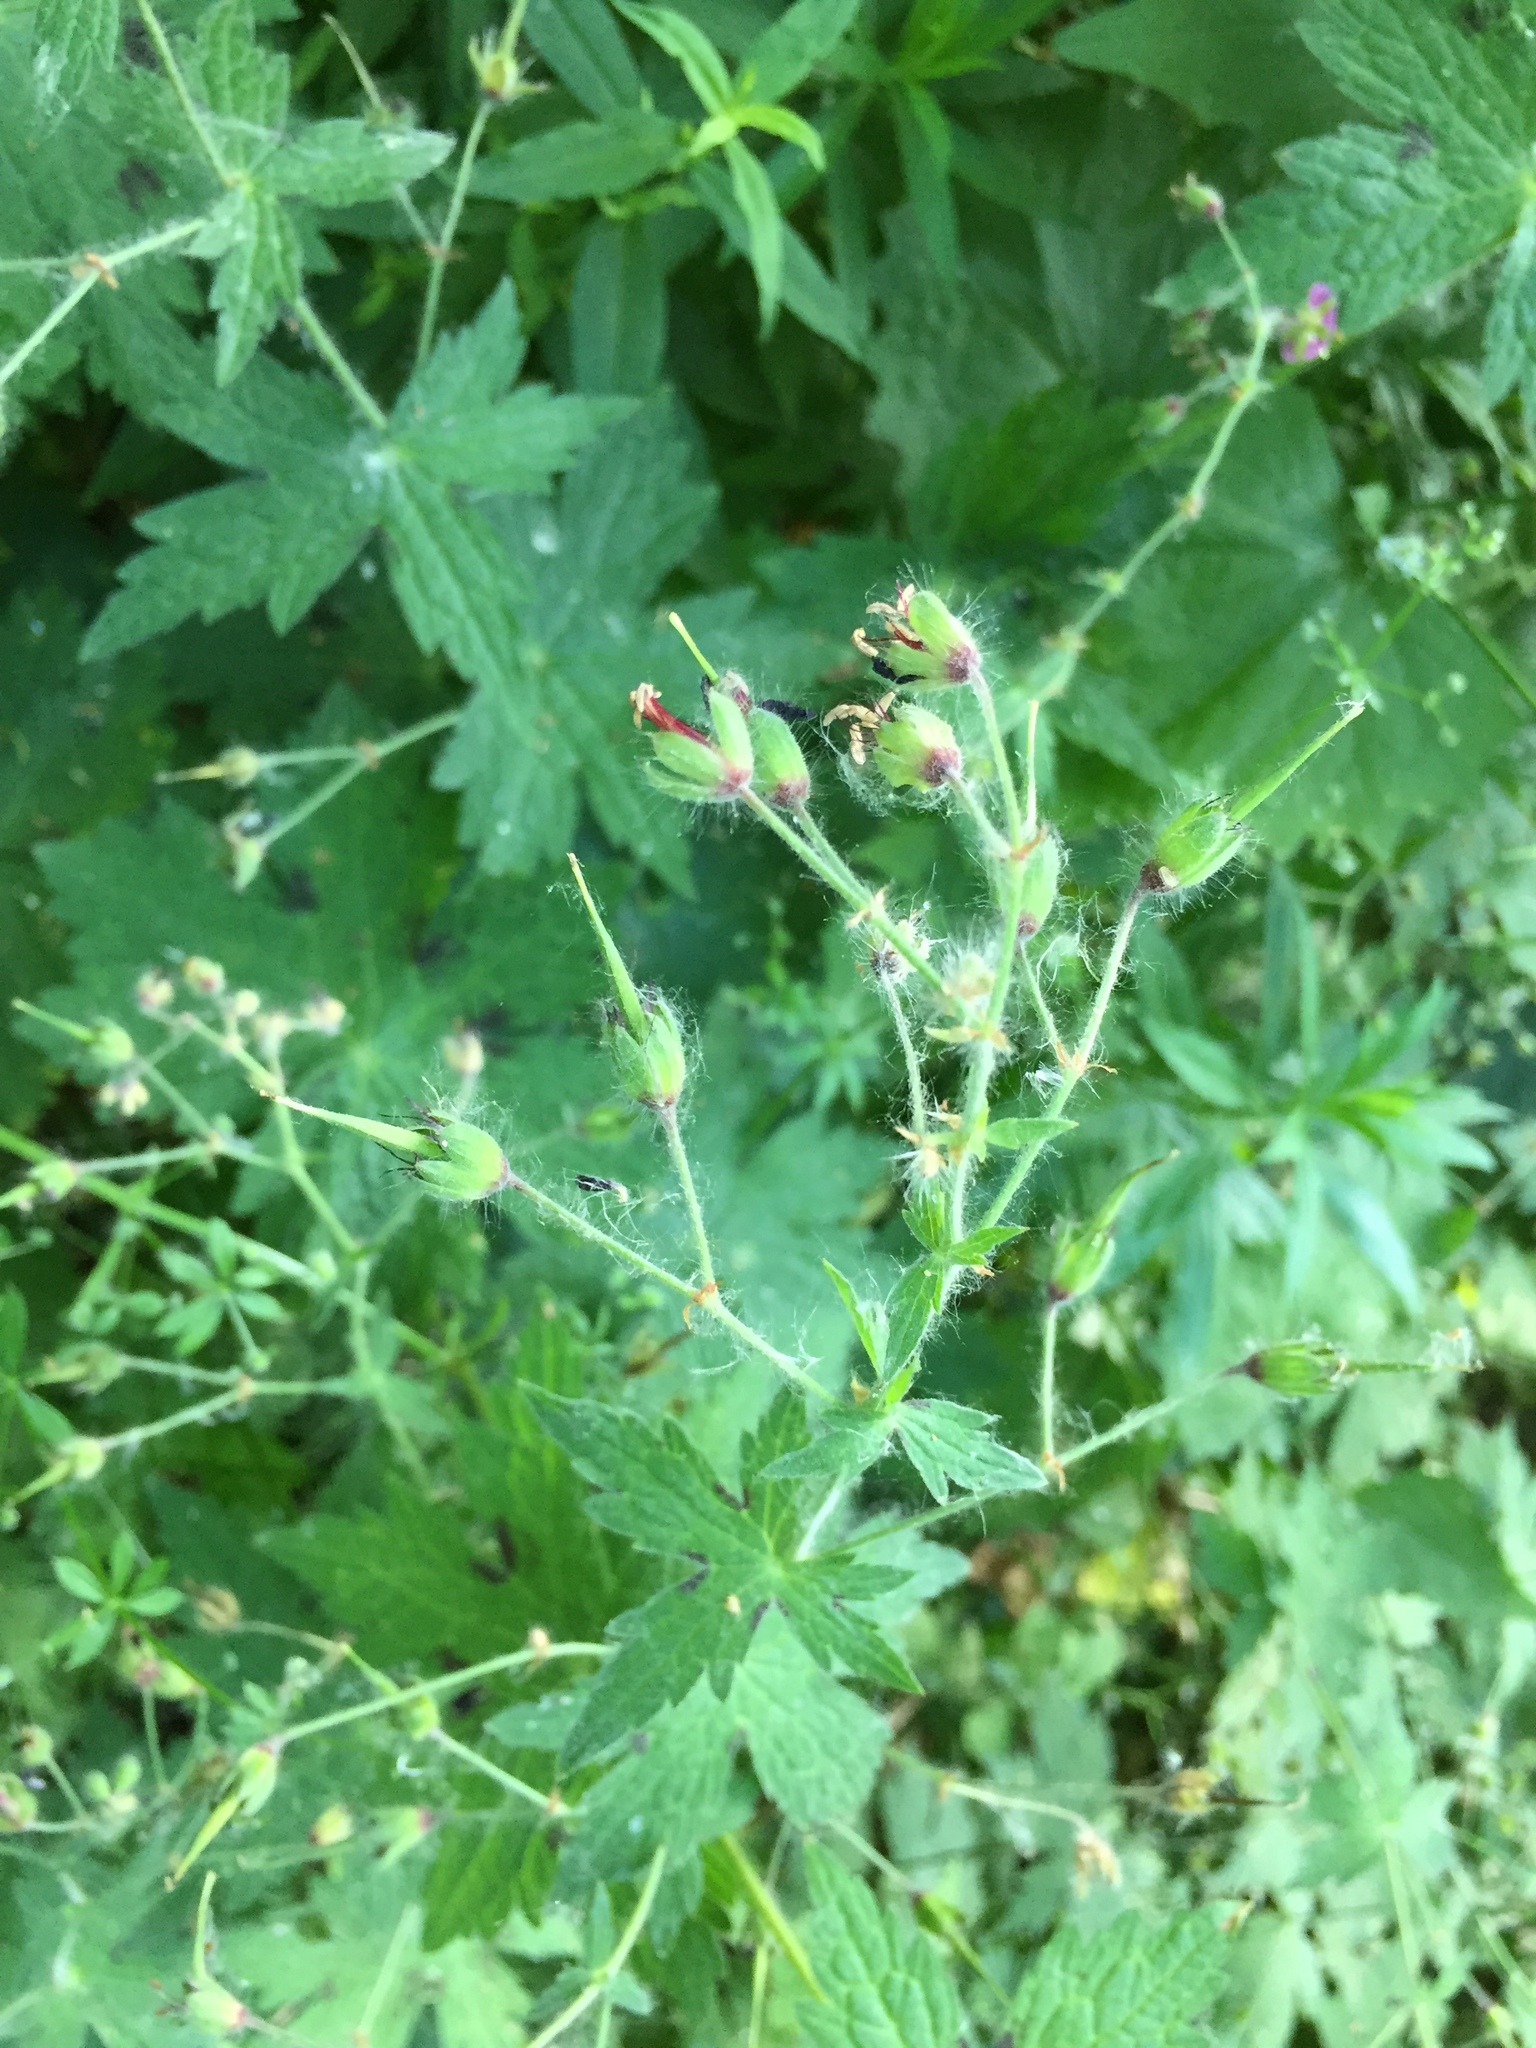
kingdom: Plantae
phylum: Tracheophyta
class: Magnoliopsida
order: Geraniales
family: Geraniaceae
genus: Geranium
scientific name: Geranium phaeum
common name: Dusky crane's-bill
